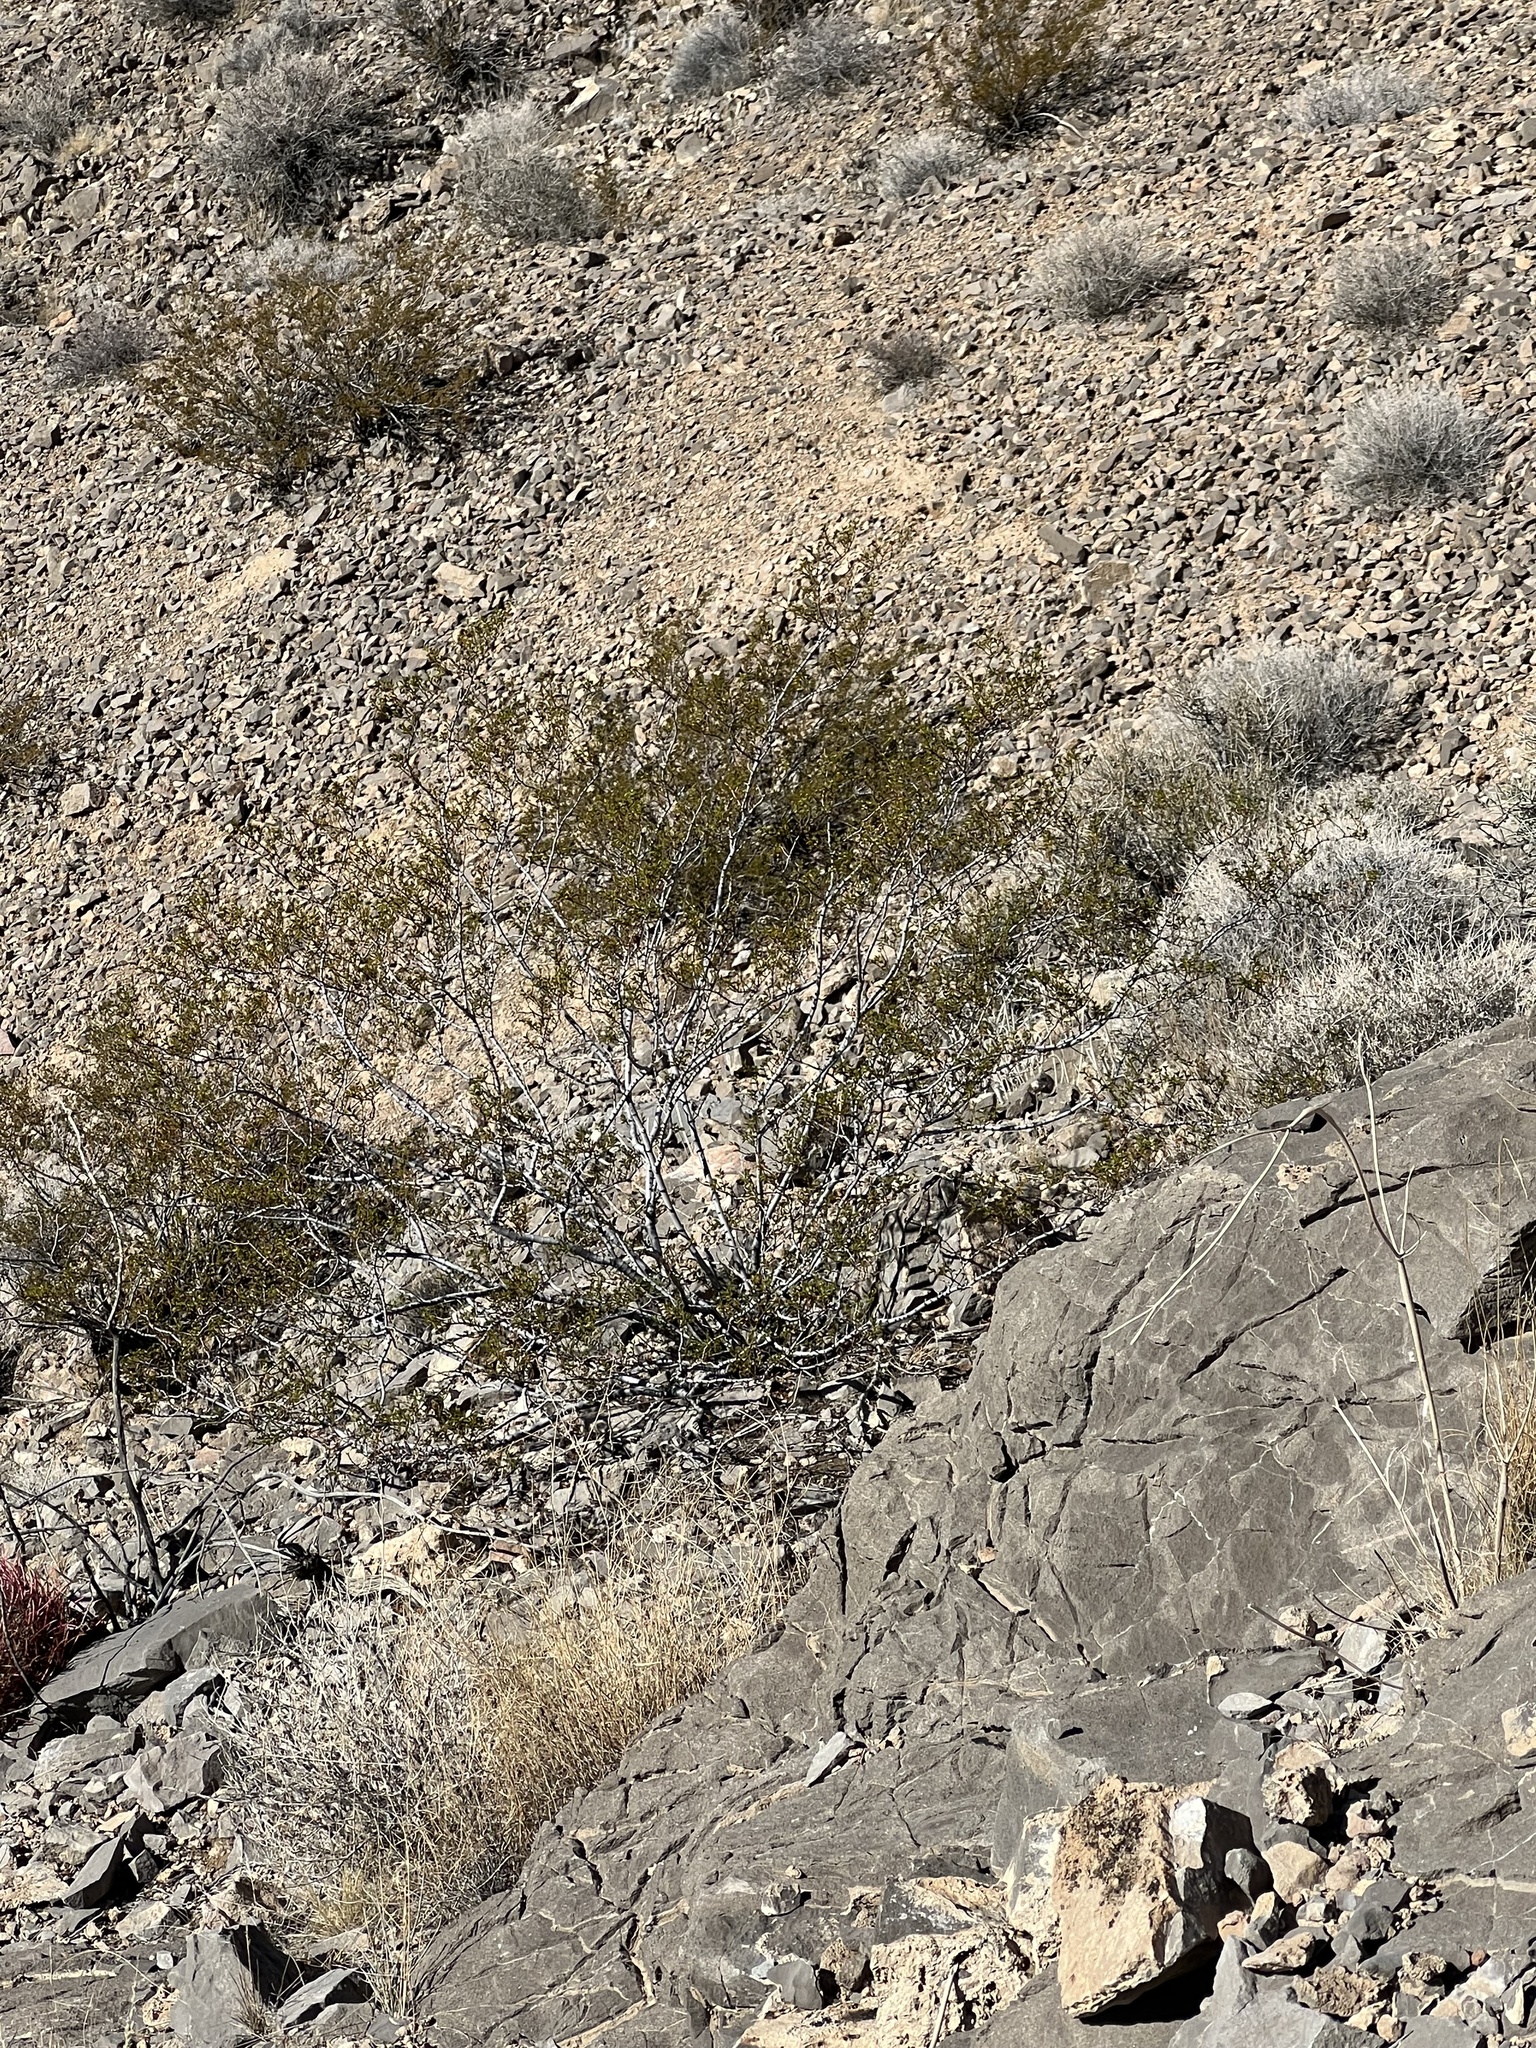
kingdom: Plantae
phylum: Tracheophyta
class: Magnoliopsida
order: Zygophyllales
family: Zygophyllaceae
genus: Larrea
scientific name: Larrea tridentata
